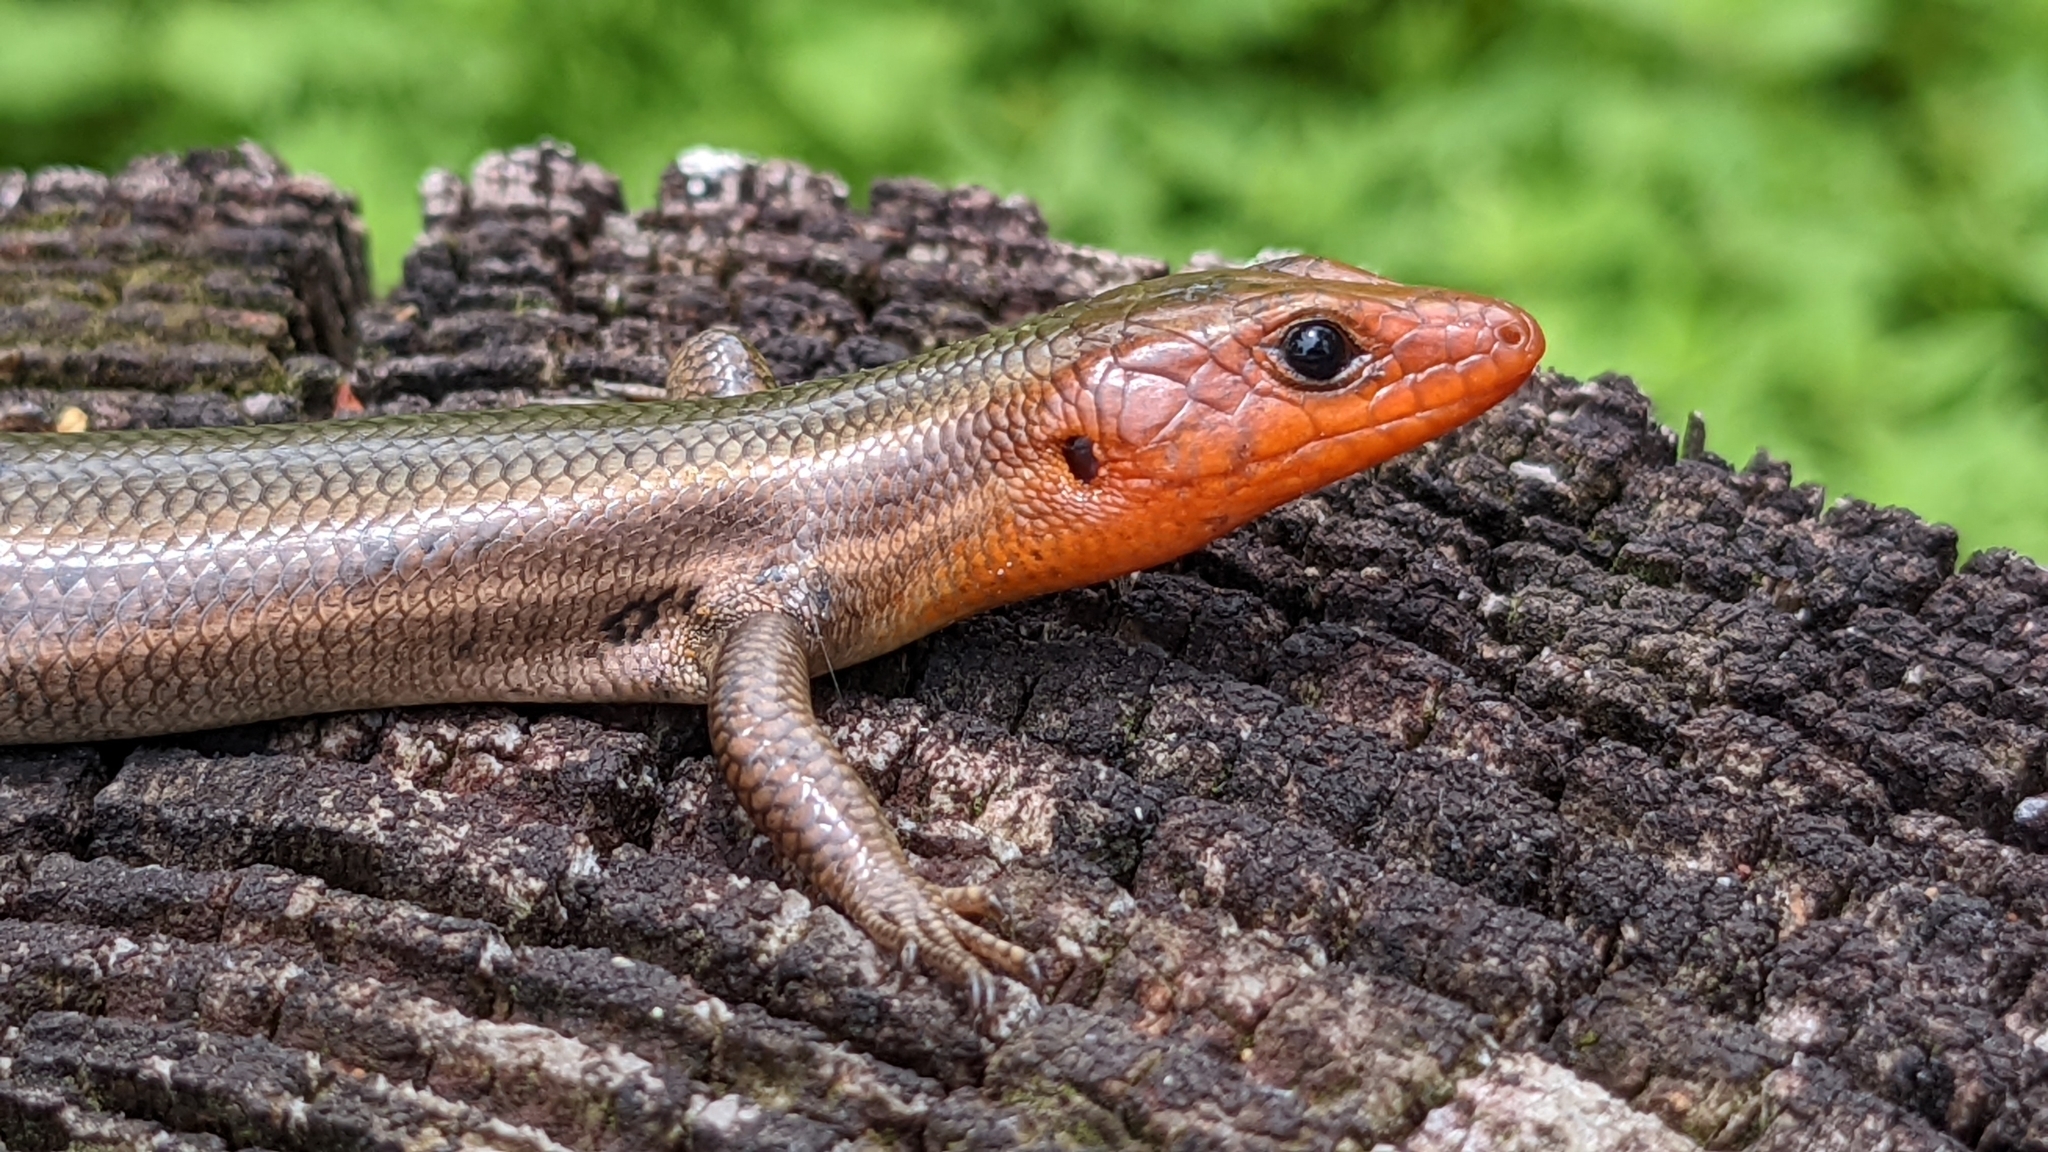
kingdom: Animalia
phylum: Chordata
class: Squamata
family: Scincidae
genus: Plestiodon
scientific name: Plestiodon fasciatus
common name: Five-lined skink
